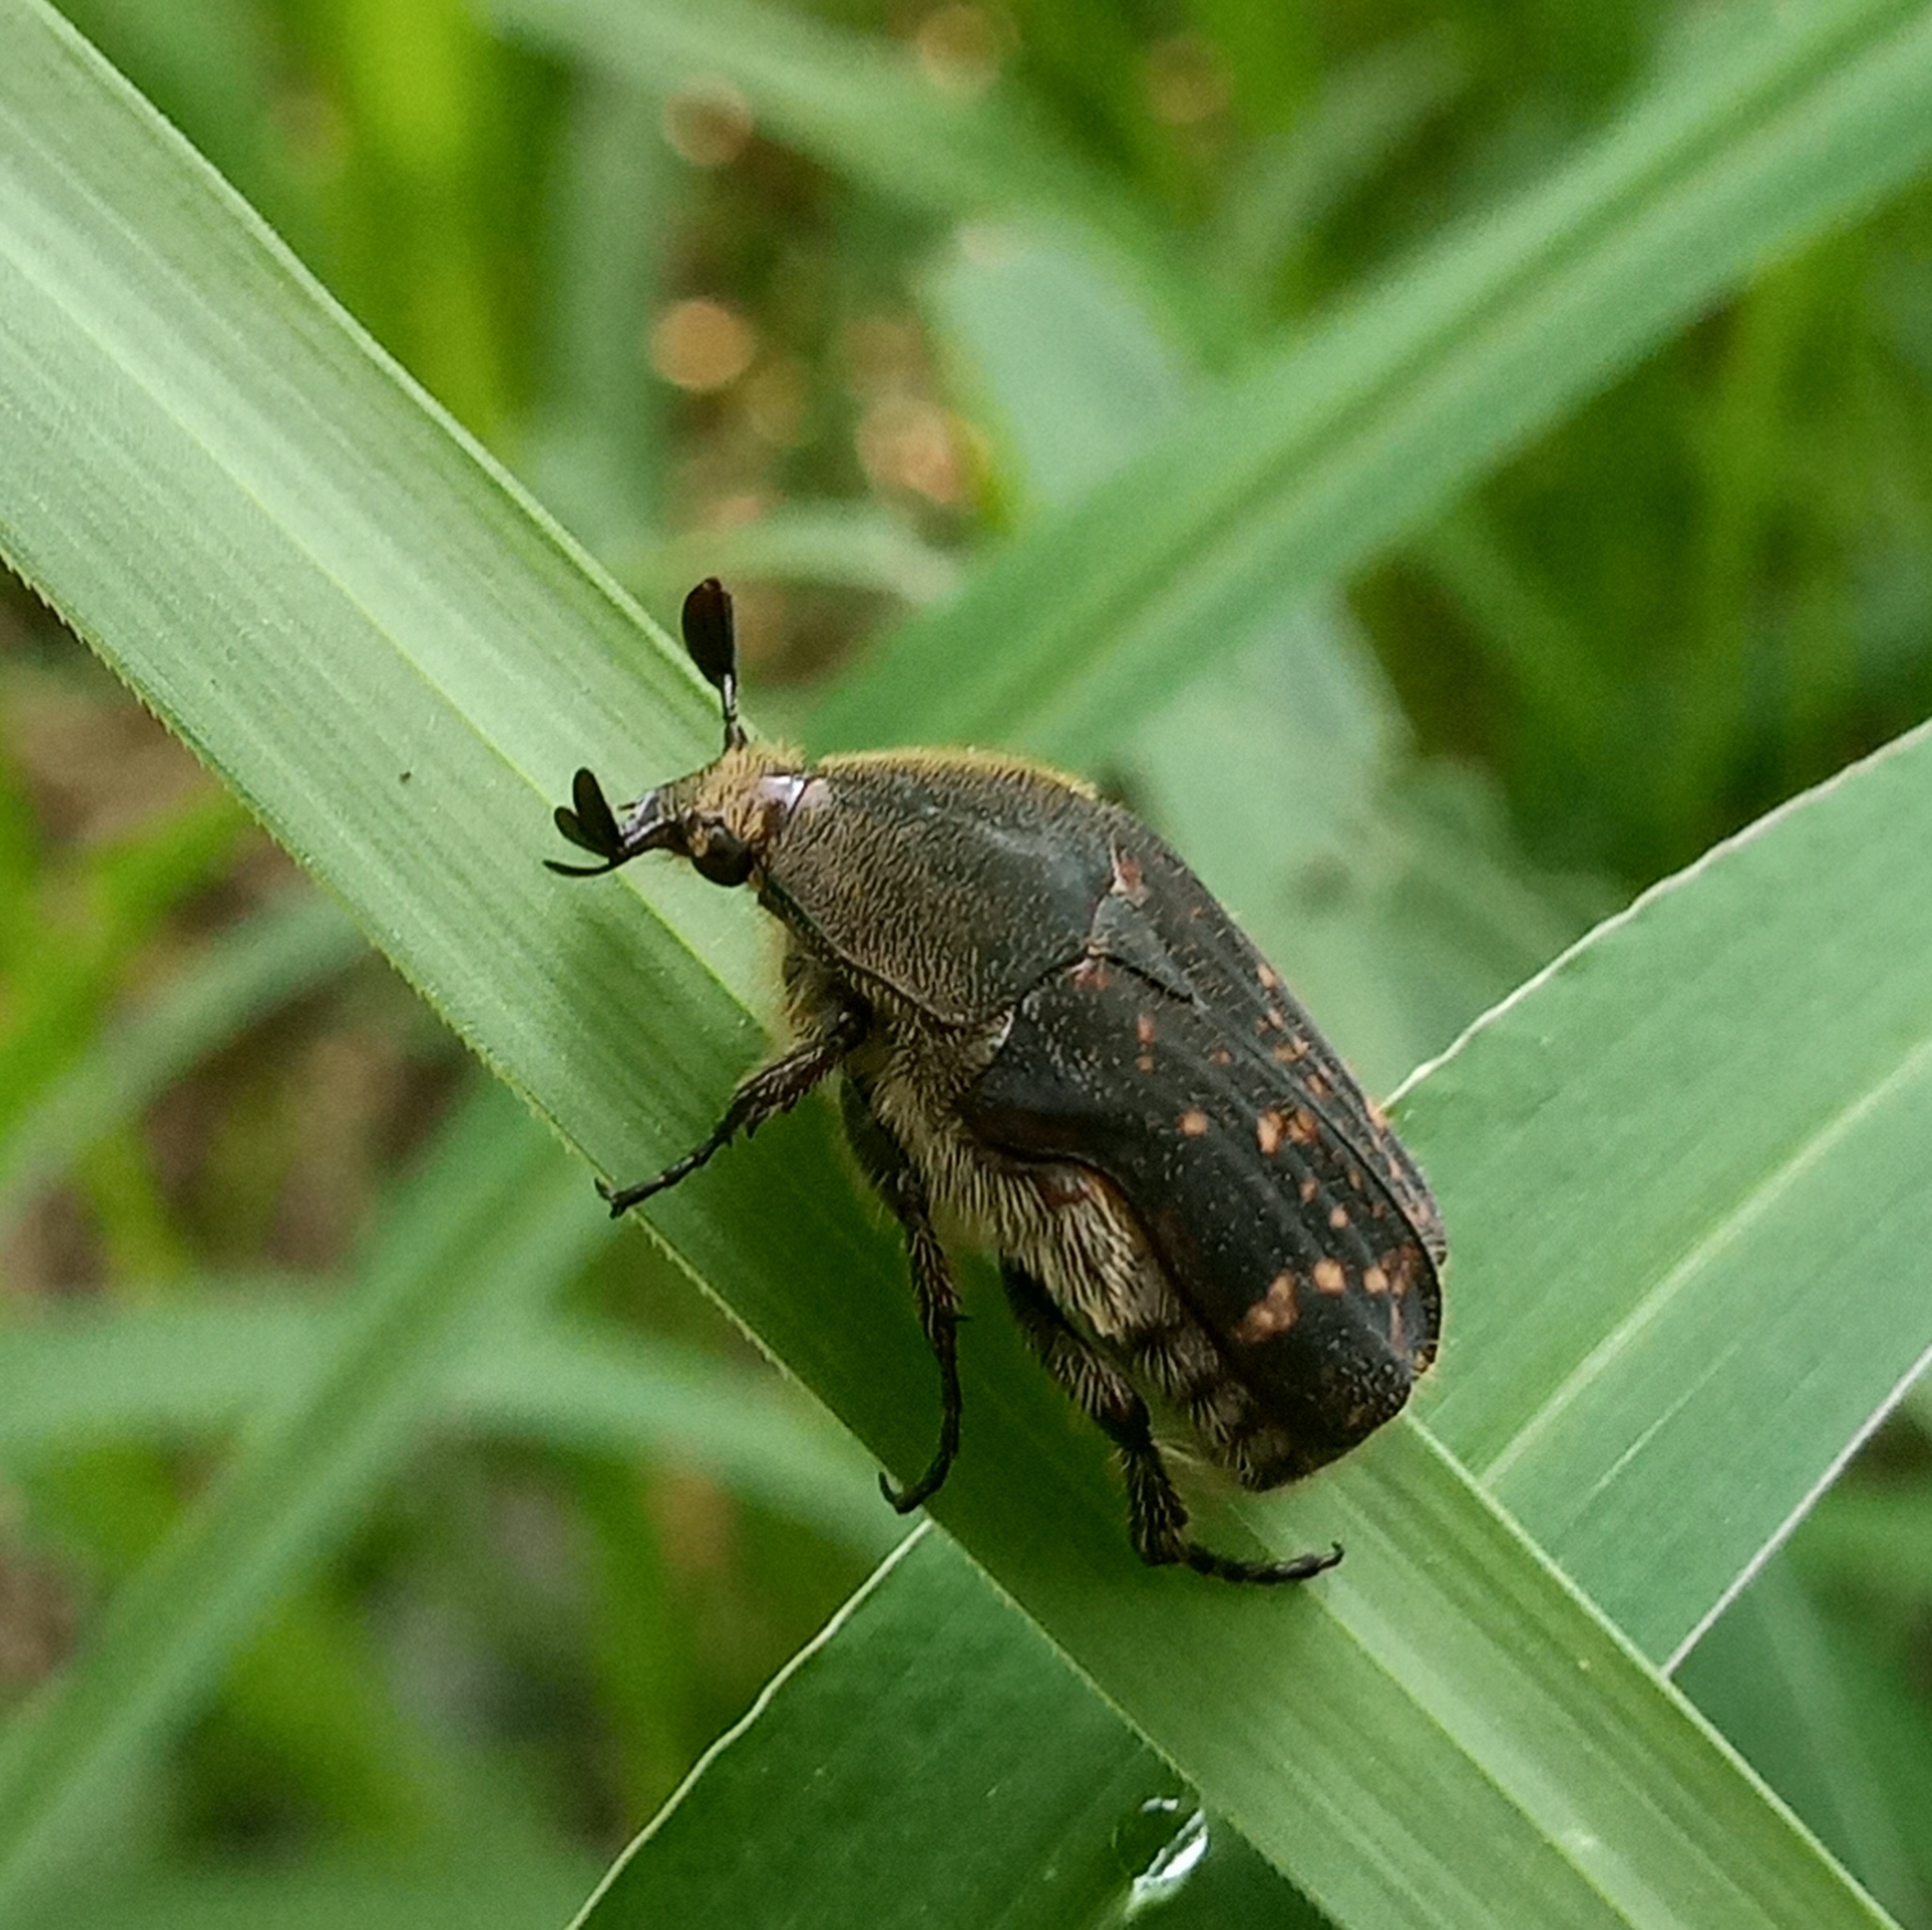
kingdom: Animalia
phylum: Arthropoda
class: Insecta
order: Coleoptera
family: Scarabaeidae
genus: Euphoria
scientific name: Euphoria schotti
